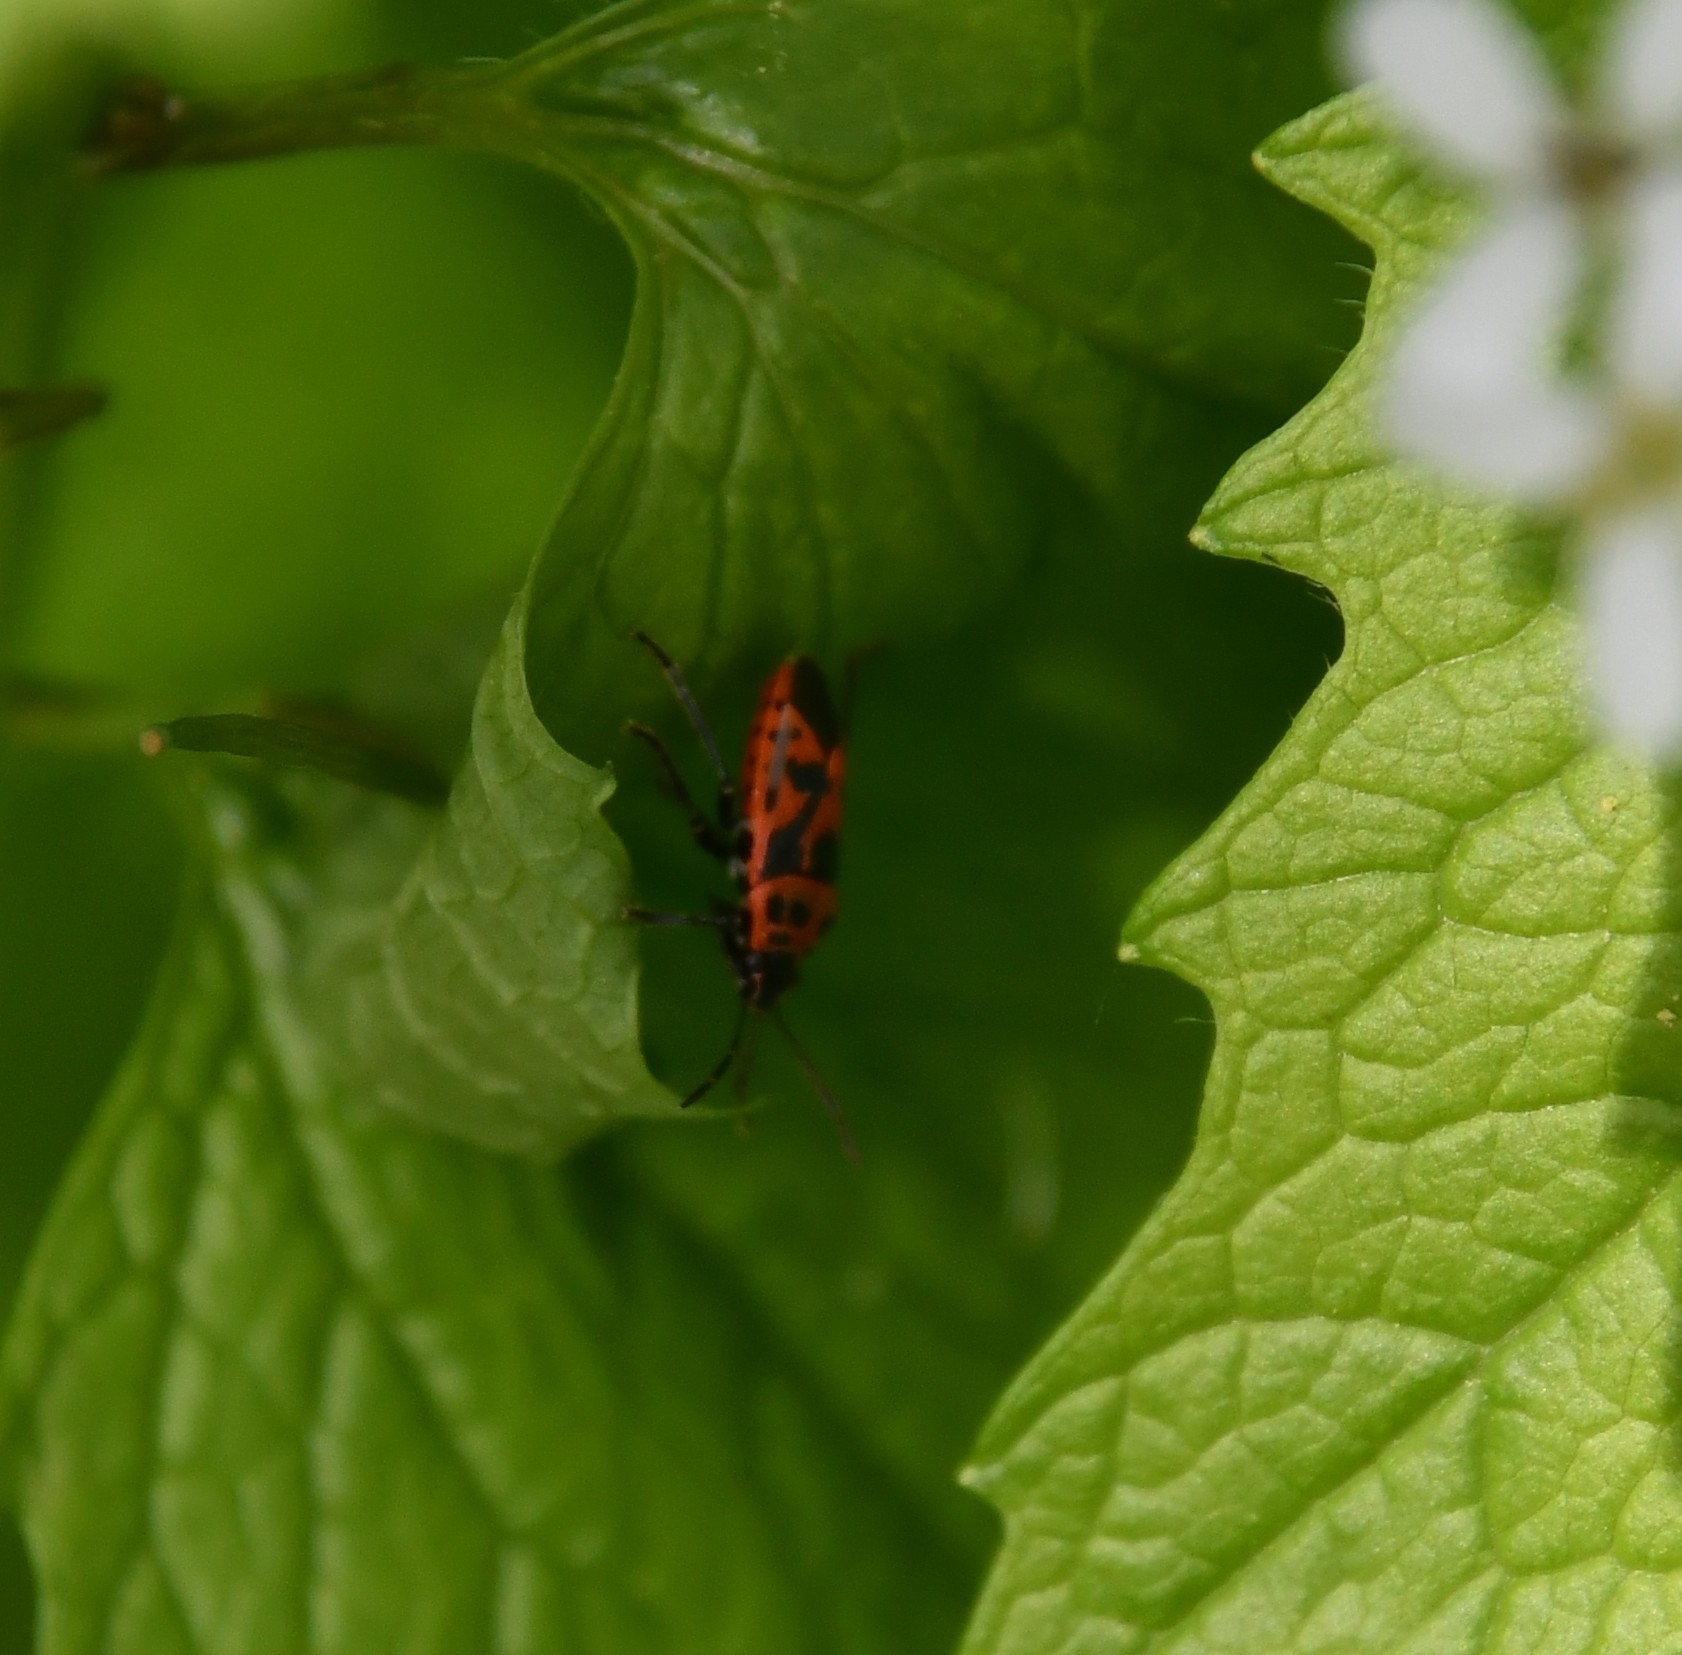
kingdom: Animalia
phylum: Arthropoda
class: Insecta
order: Hemiptera
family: Pentatomidae
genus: Eurydema
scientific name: Eurydema ornata
